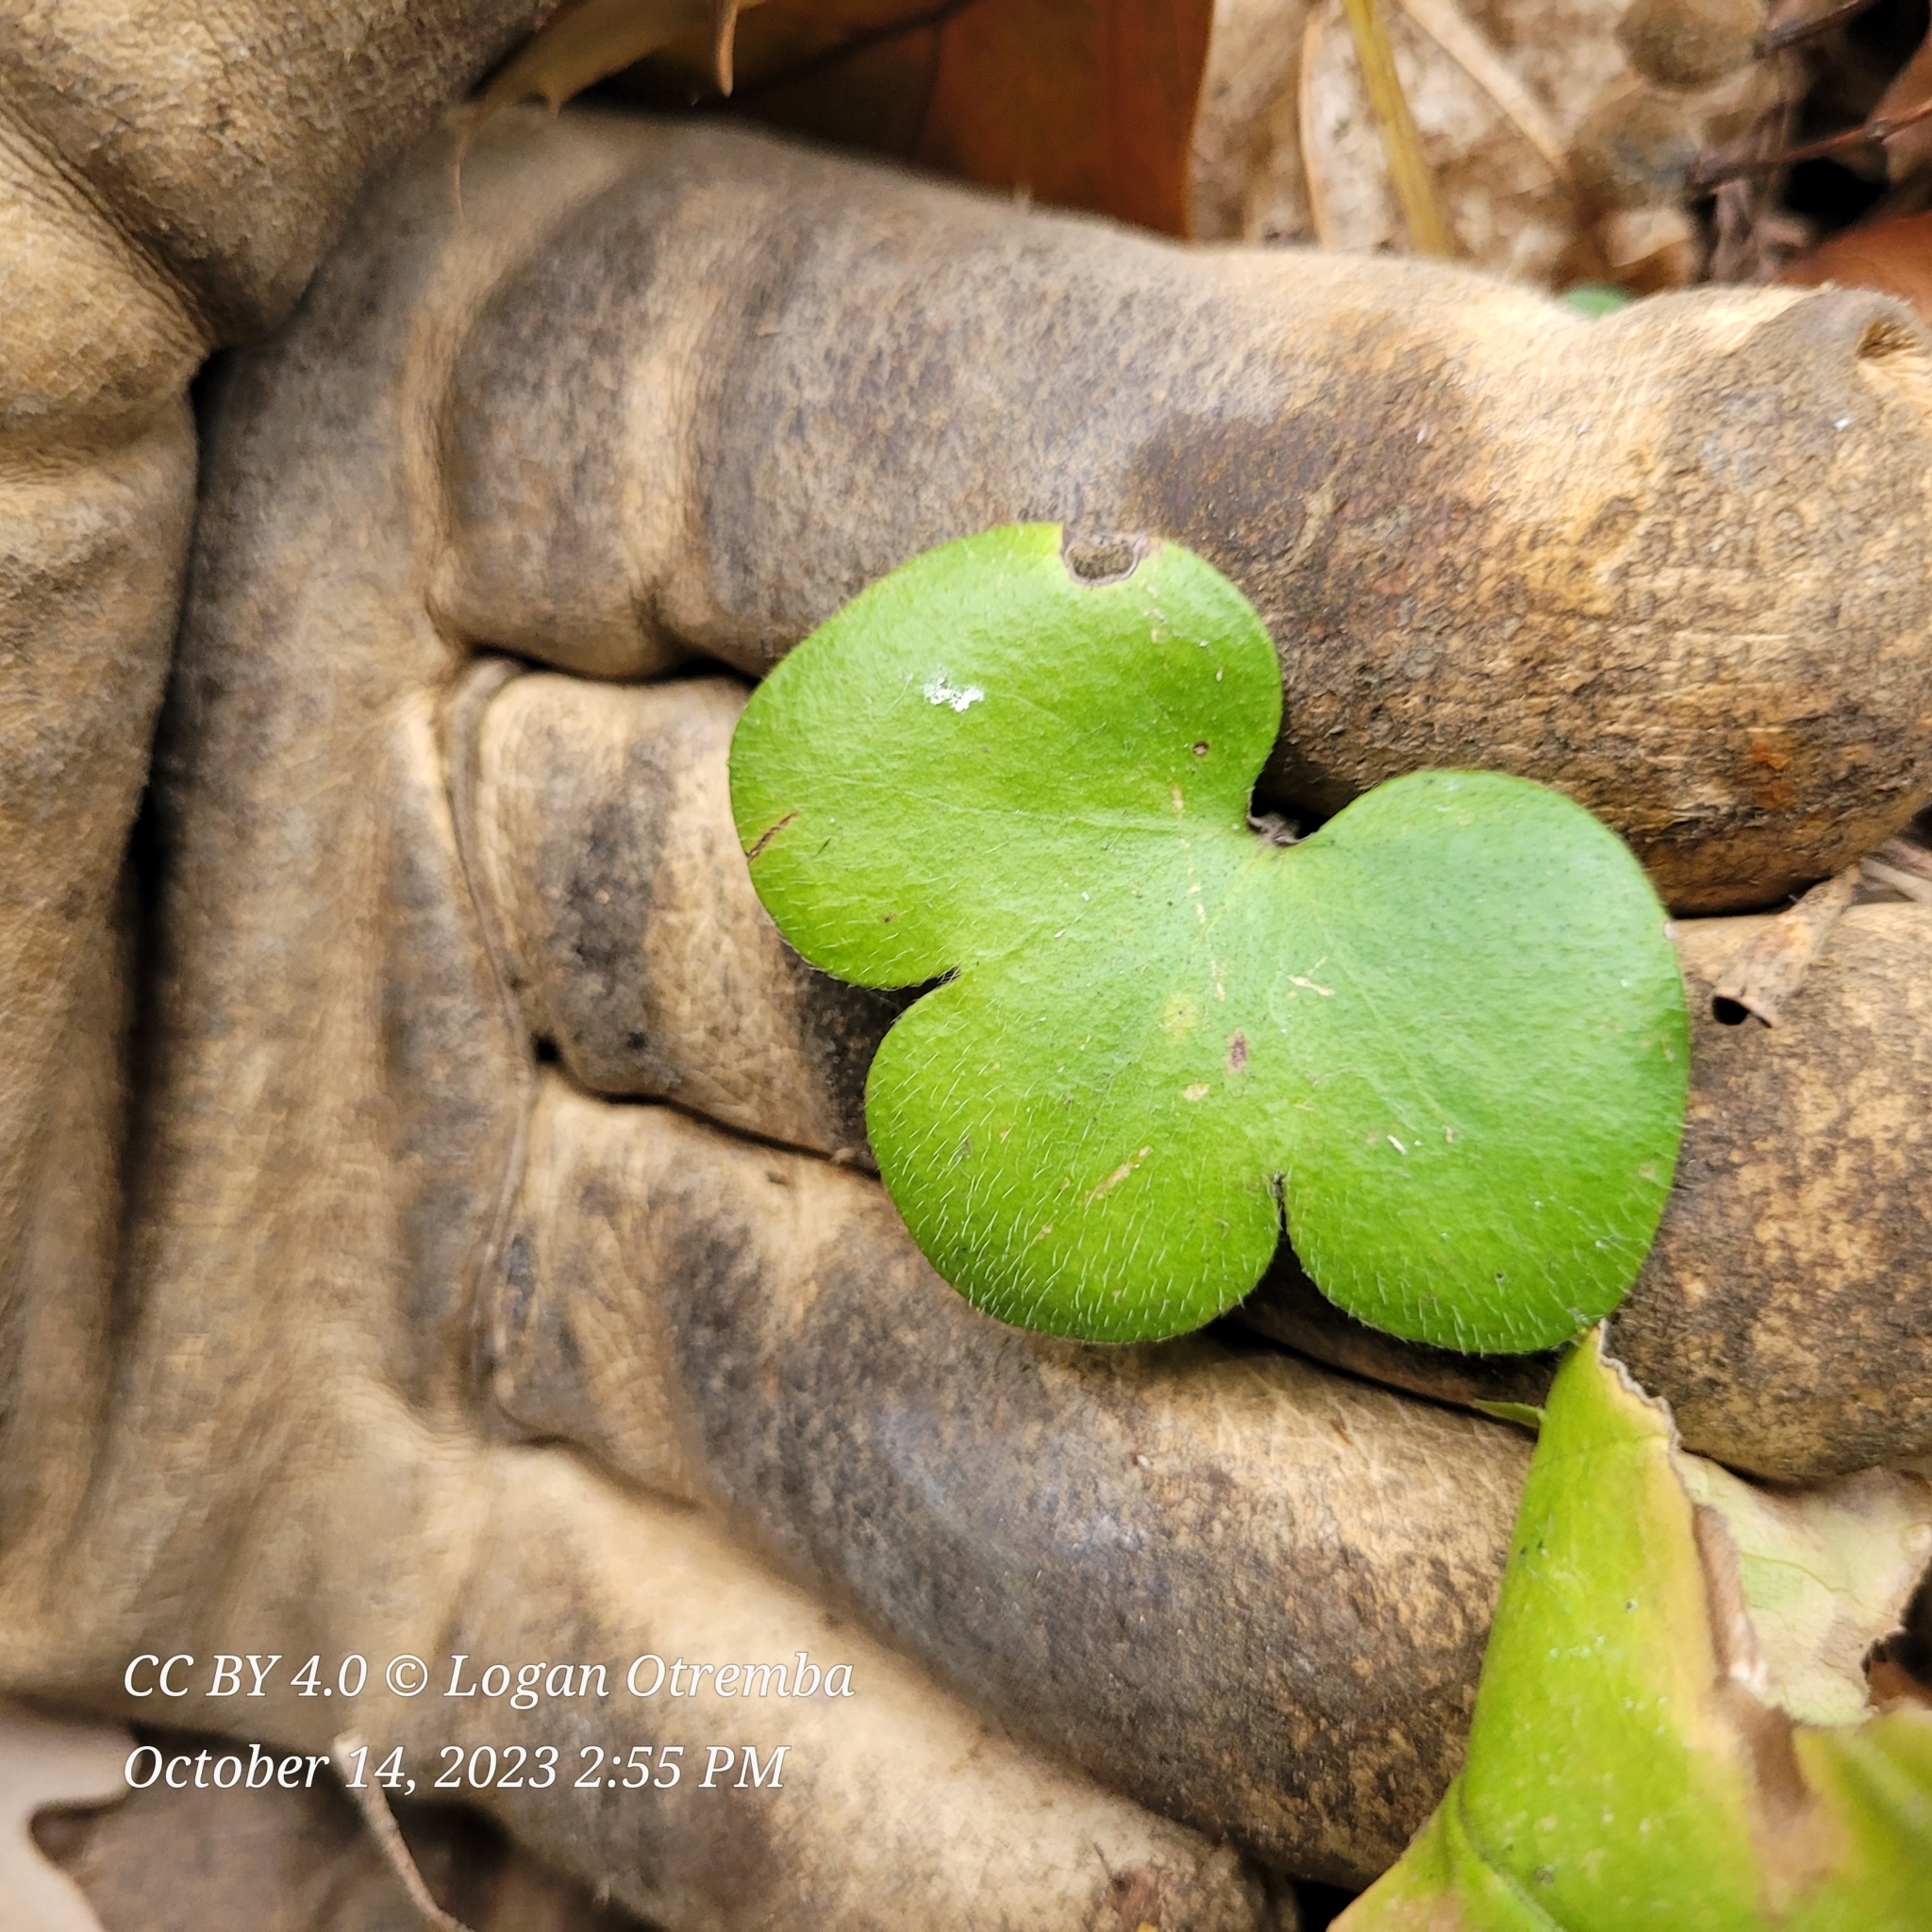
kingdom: Plantae
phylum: Tracheophyta
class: Magnoliopsida
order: Ranunculales
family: Ranunculaceae
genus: Hepatica
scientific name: Hepatica americana
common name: American hepatica
